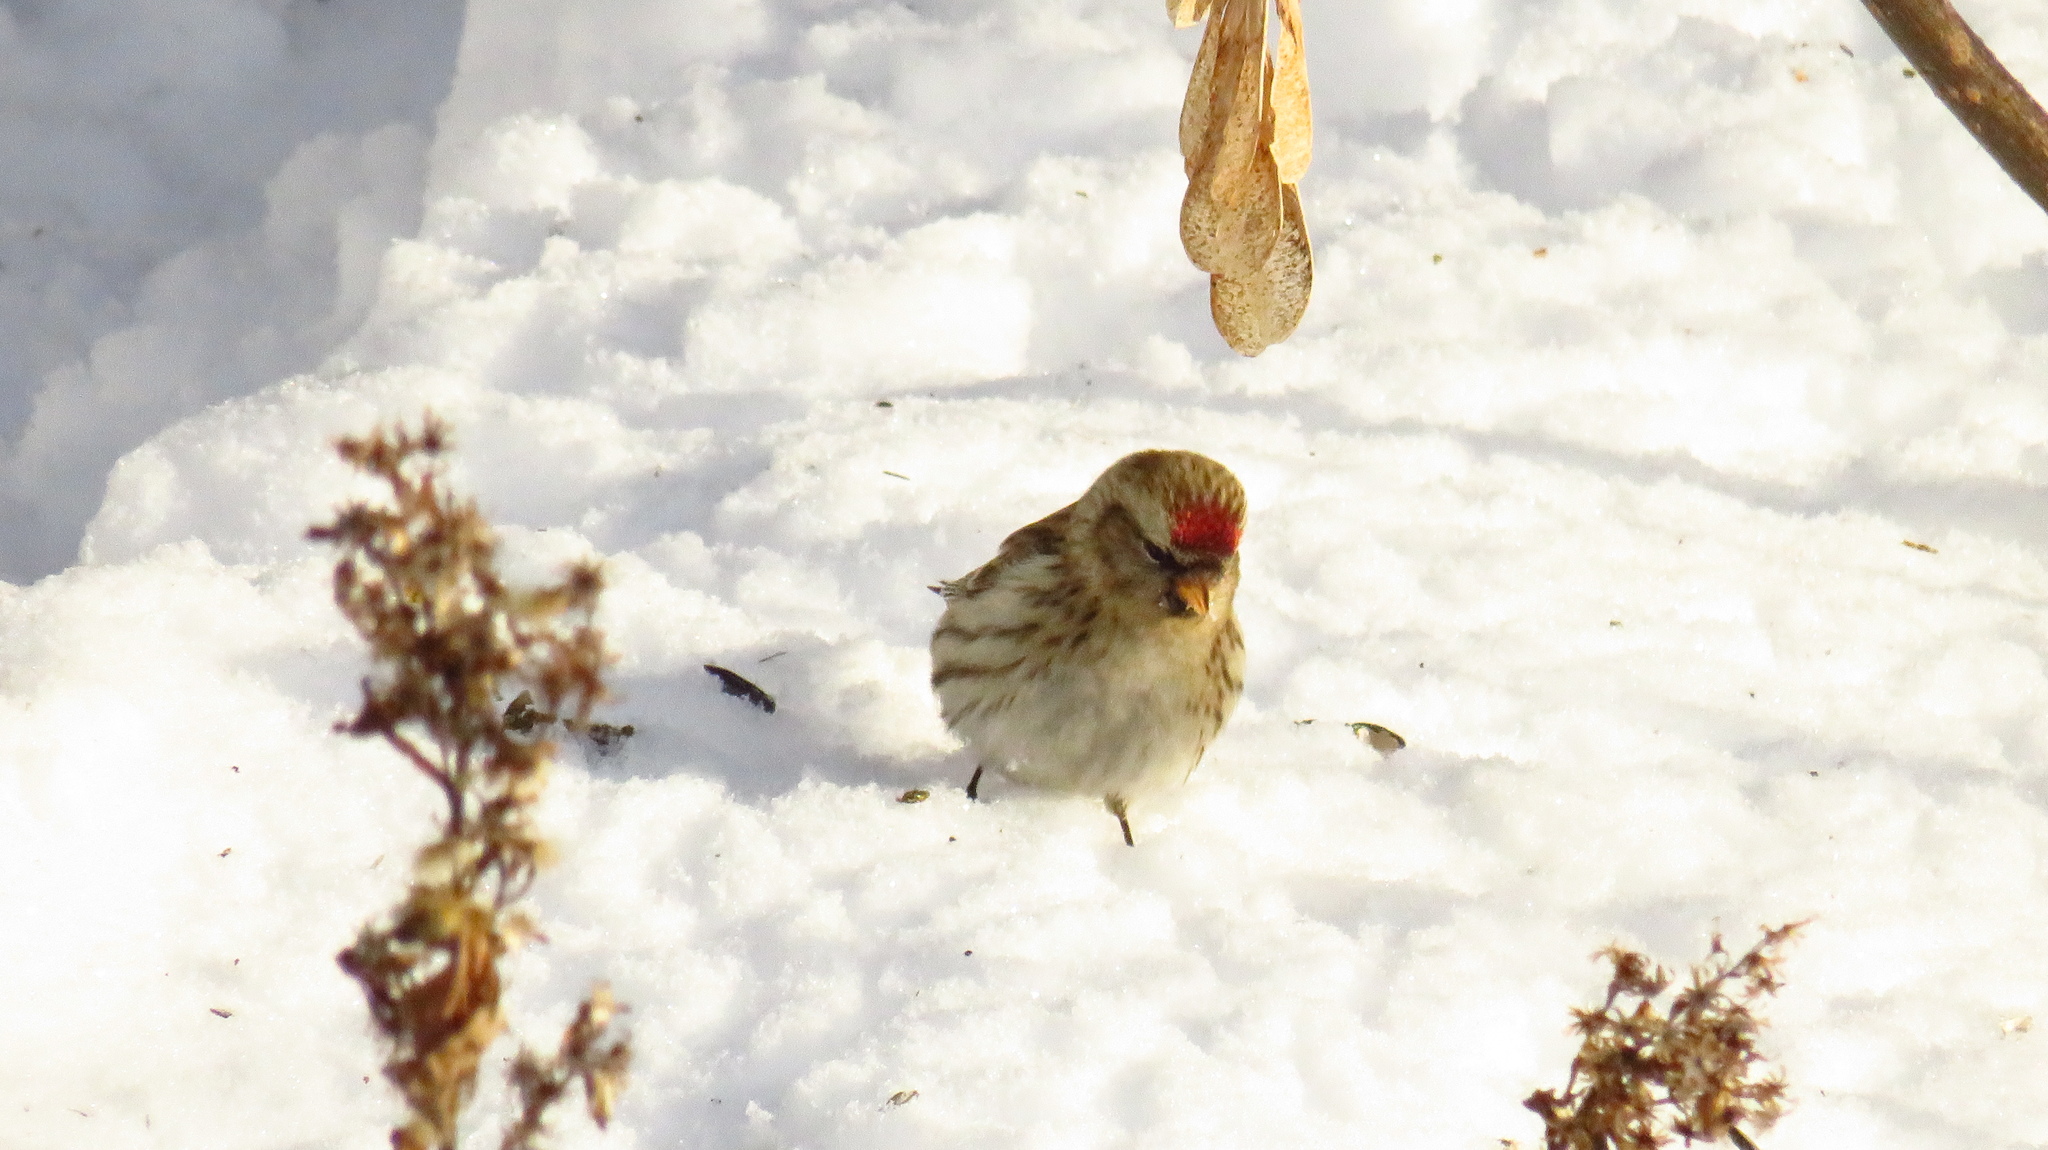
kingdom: Animalia
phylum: Chordata
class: Aves
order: Passeriformes
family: Fringillidae
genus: Acanthis
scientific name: Acanthis flammea
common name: Common redpoll
